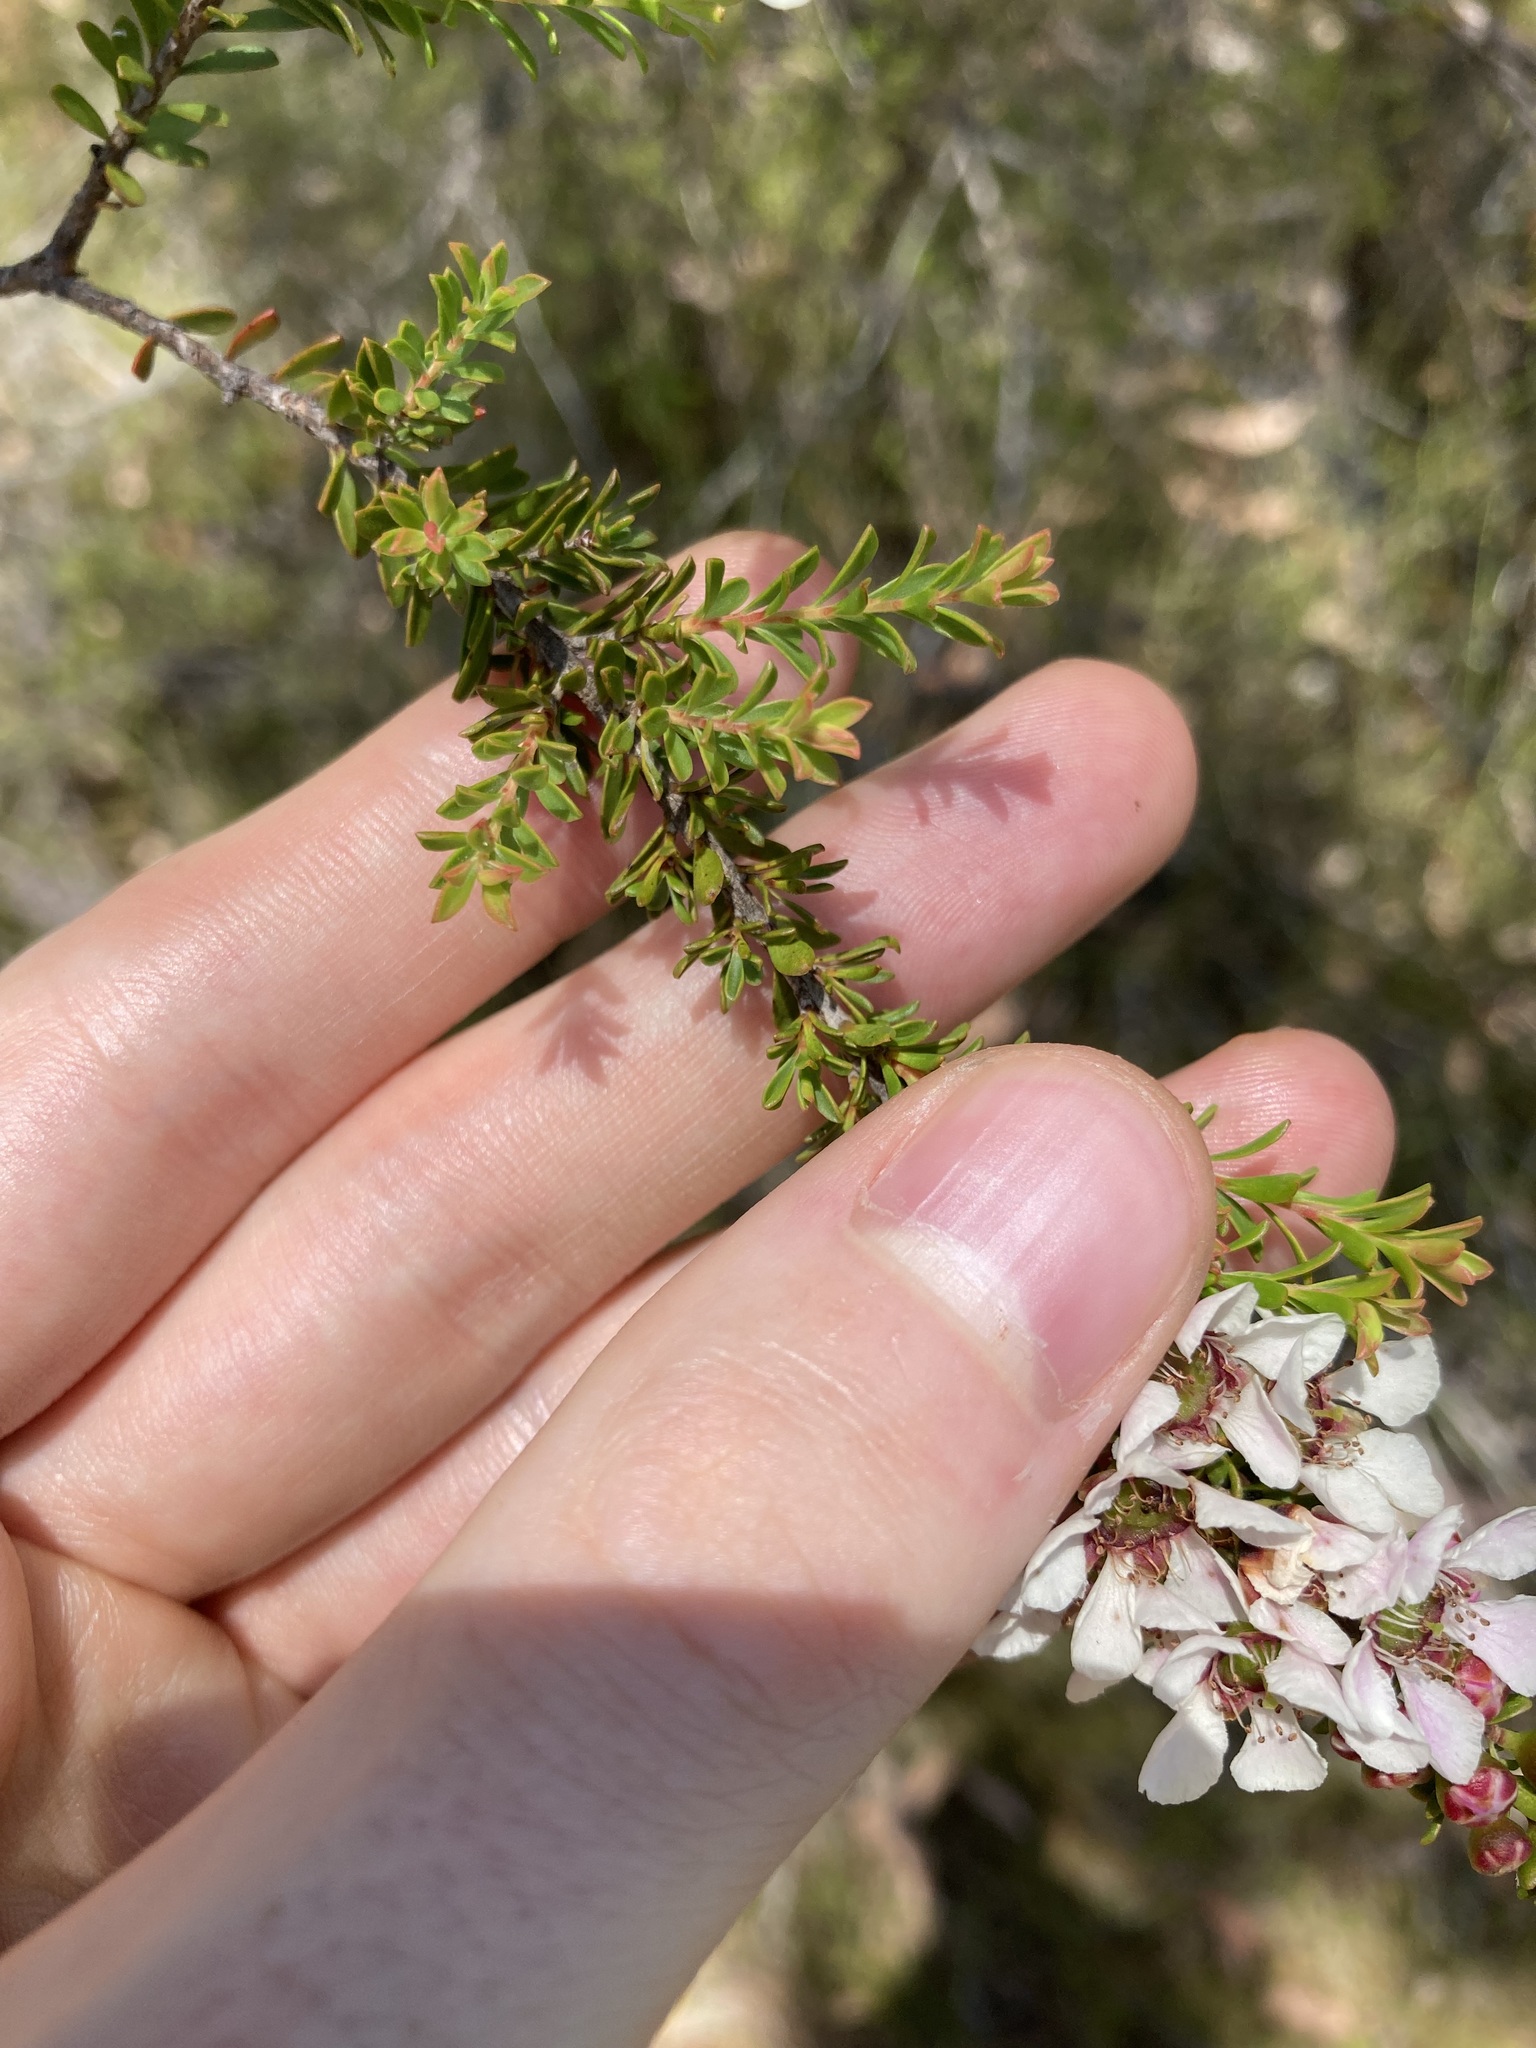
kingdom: Plantae
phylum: Tracheophyta
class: Magnoliopsida
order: Myrtales
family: Myrtaceae
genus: Leptospermum
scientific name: Leptospermum liversidgei
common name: Citron-scent teatree
